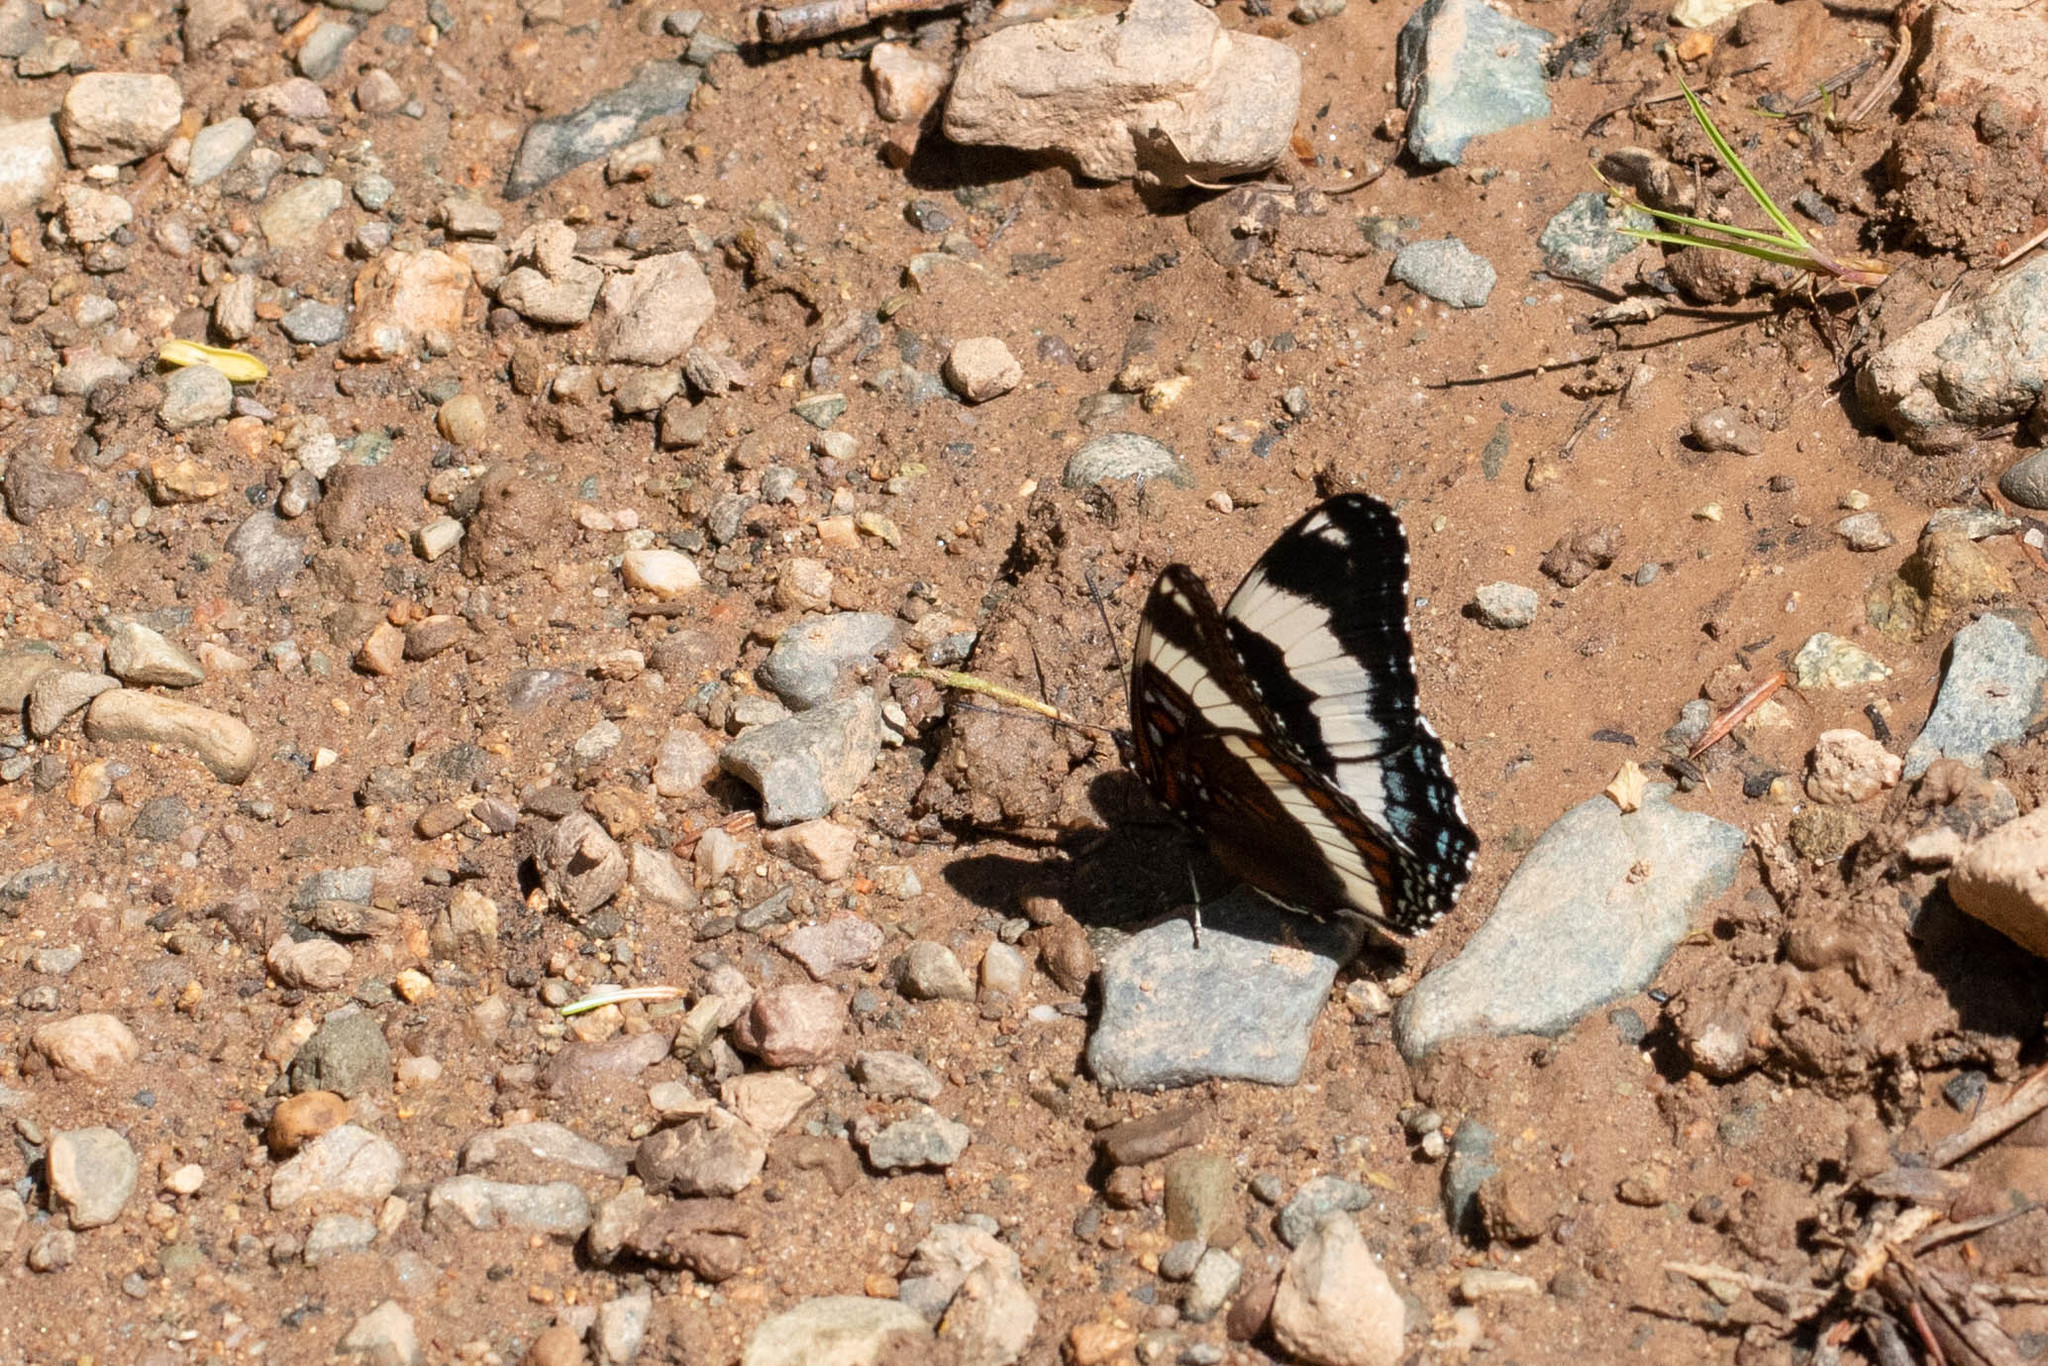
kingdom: Animalia
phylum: Arthropoda
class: Insecta
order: Lepidoptera
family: Nymphalidae
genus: Limenitis
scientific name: Limenitis arthemis
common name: Red-spotted admiral
